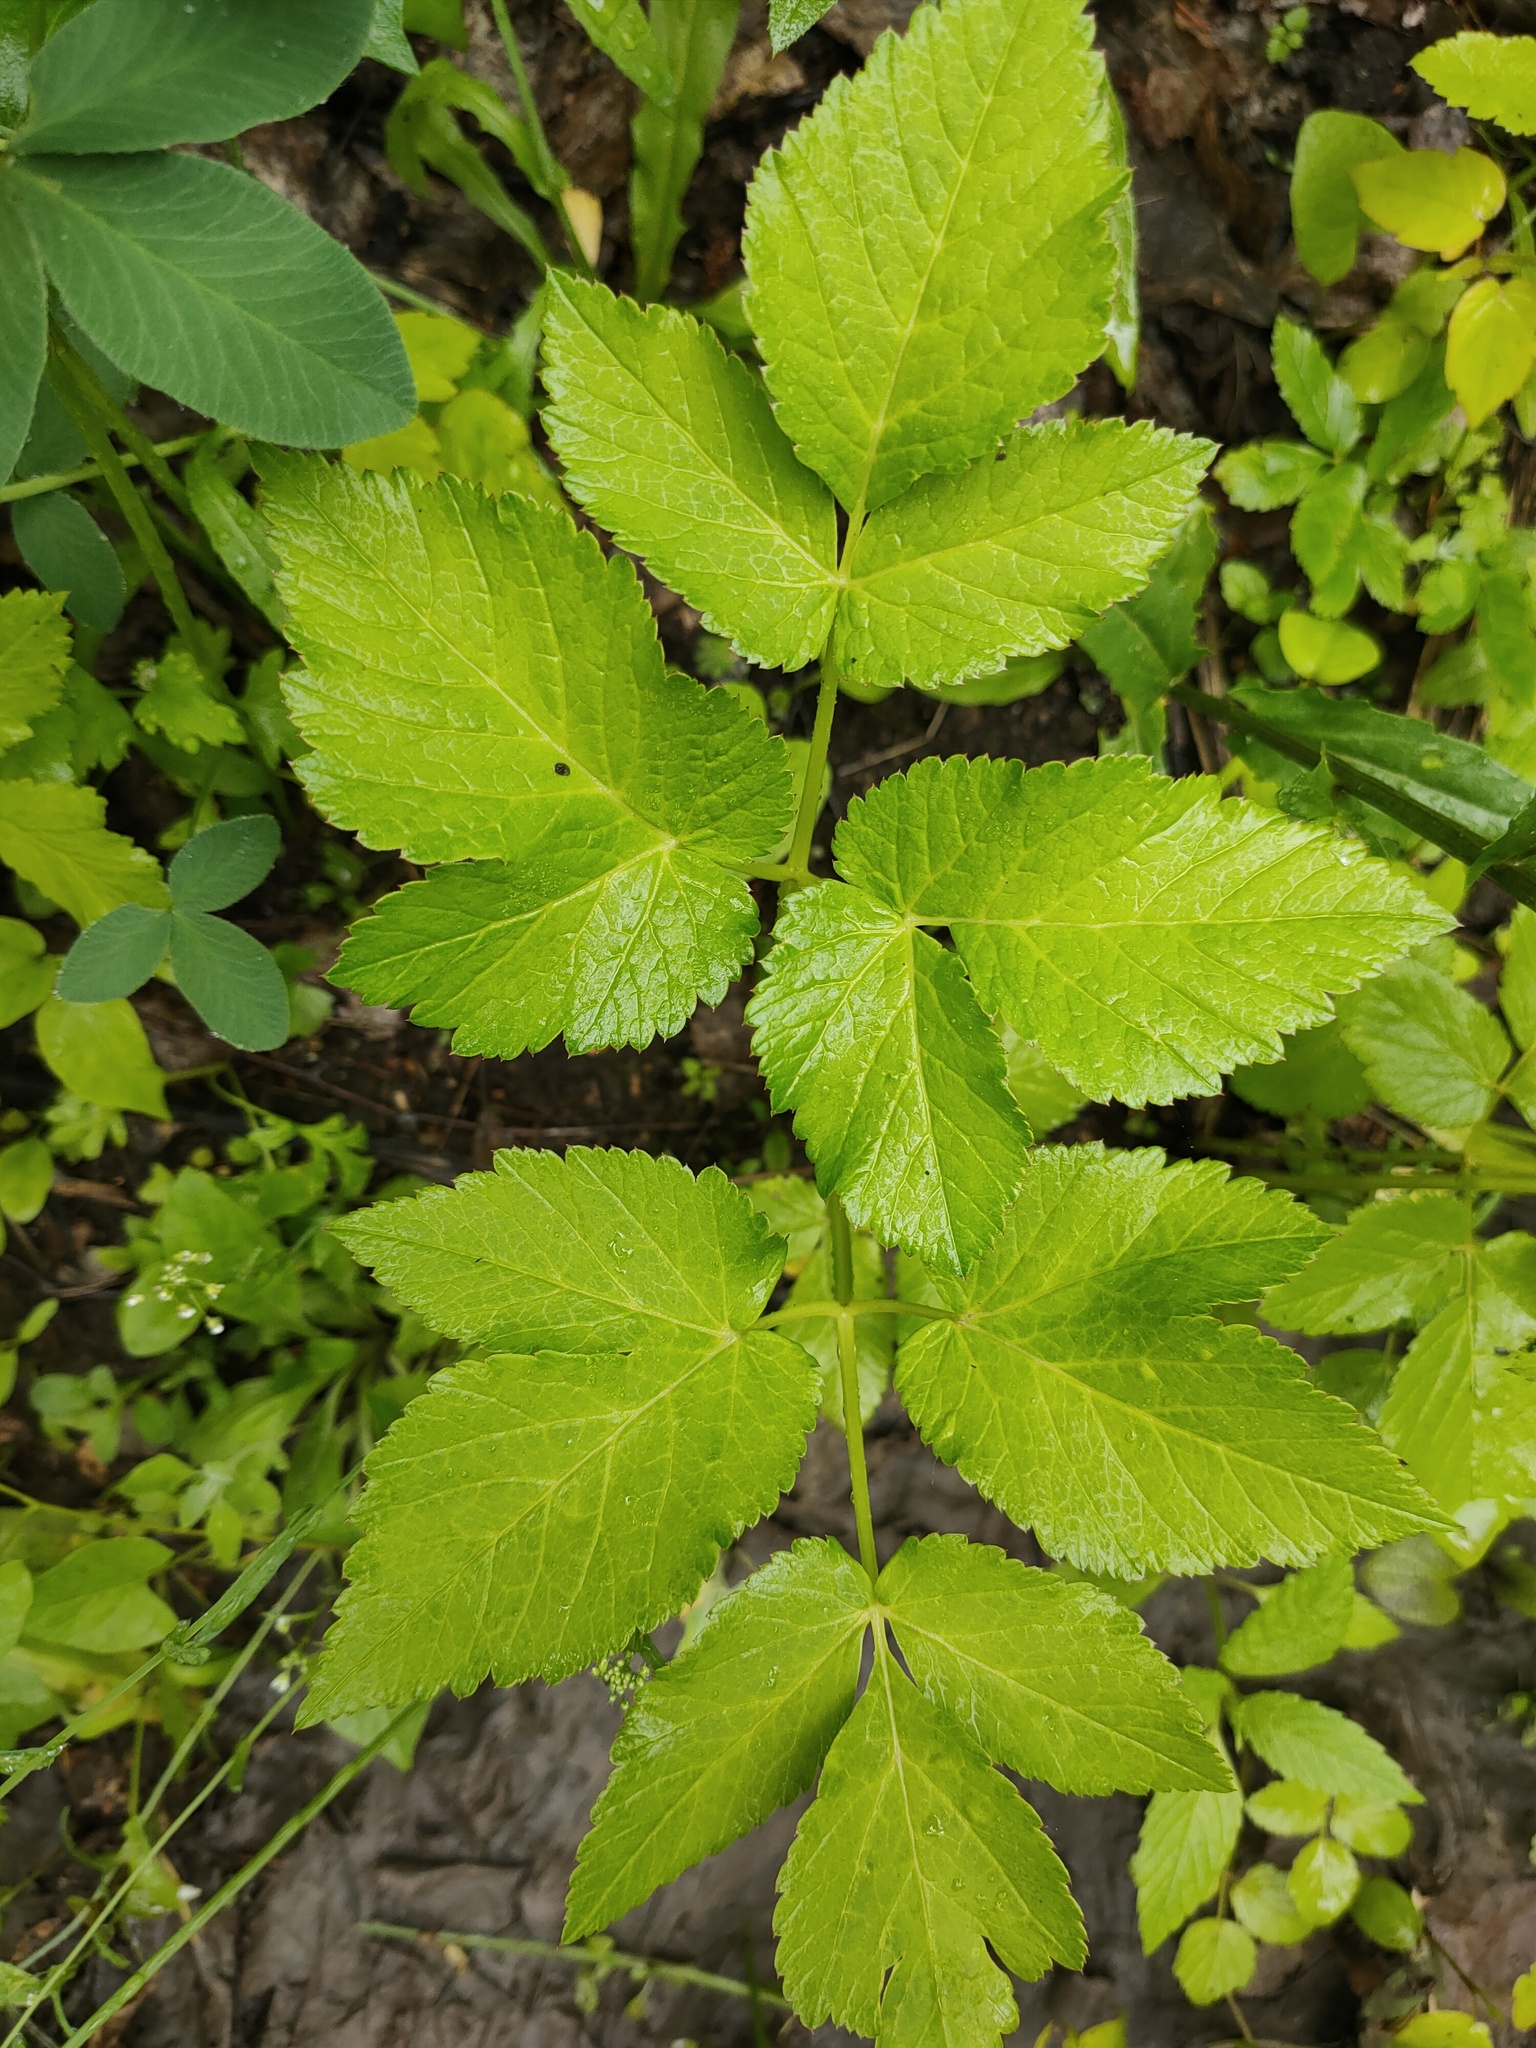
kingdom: Plantae
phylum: Tracheophyta
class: Magnoliopsida
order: Apiales
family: Apiaceae
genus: Aegopodium
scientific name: Aegopodium podagraria
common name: Ground-elder
